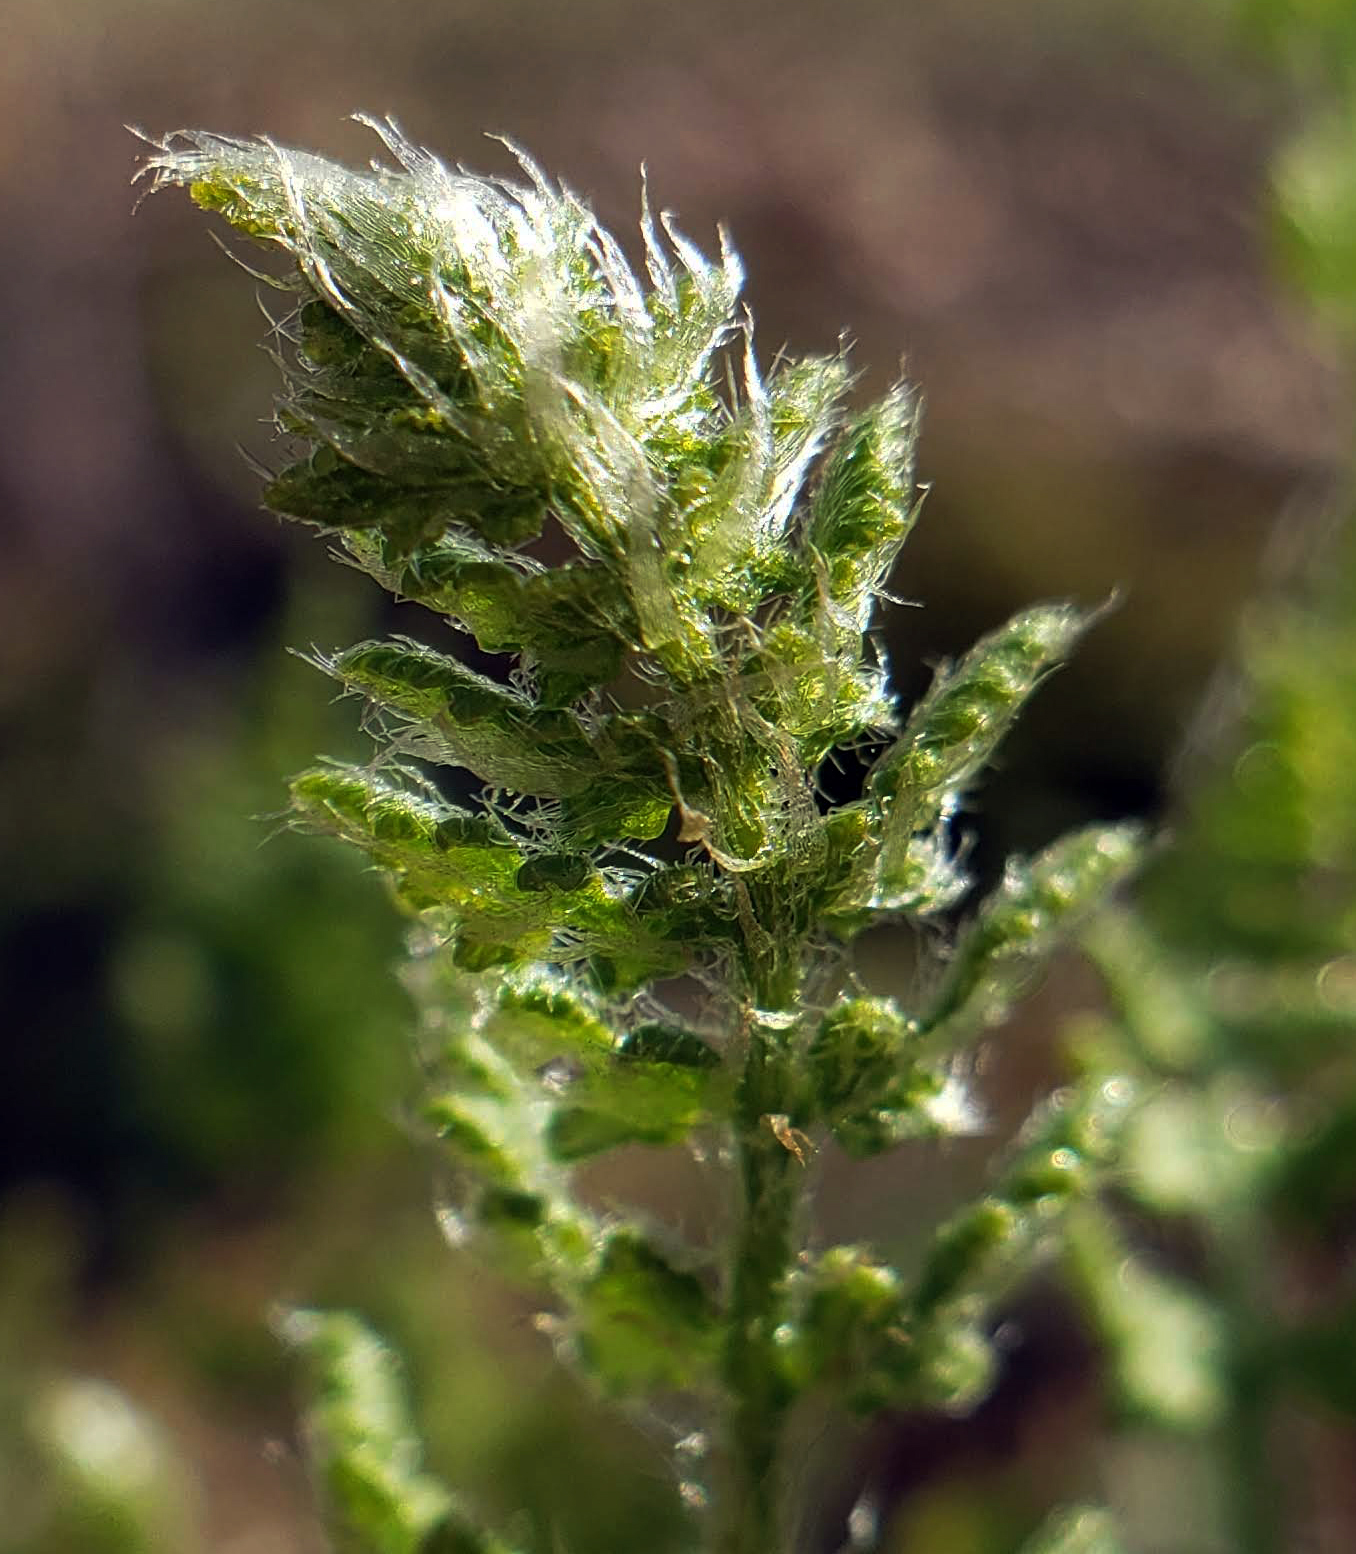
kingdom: Plantae
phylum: Tracheophyta
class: Polypodiopsida
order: Polypodiales
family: Woodsiaceae
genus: Woodsia
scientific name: Woodsia ilvensis
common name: Fragrant woodsia
